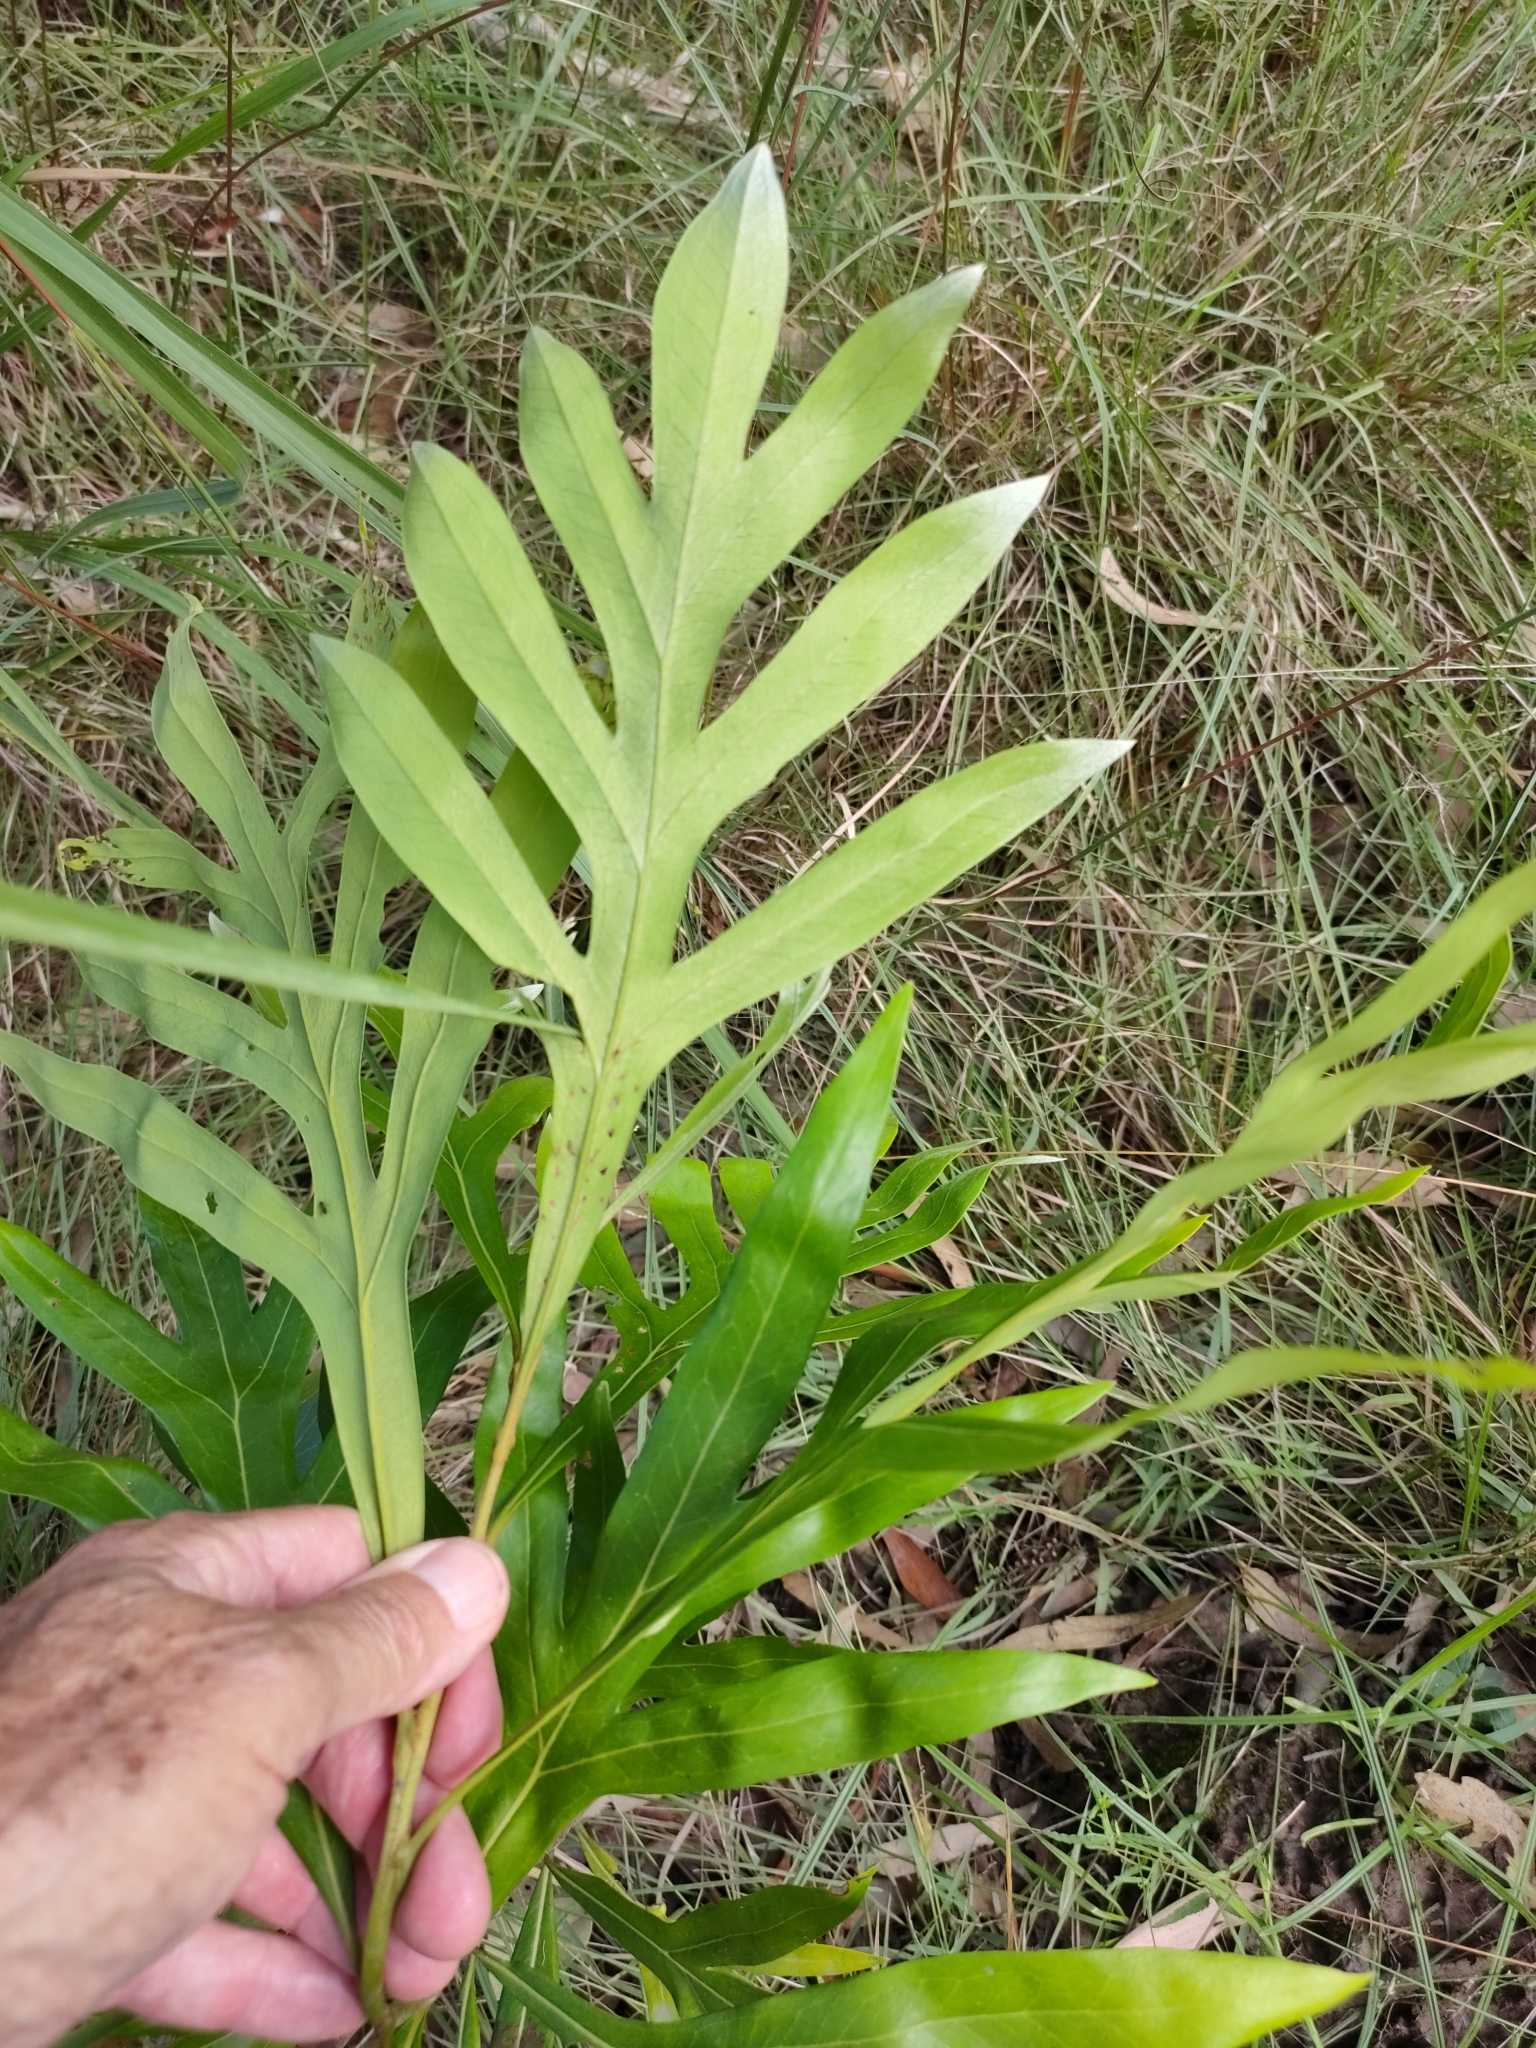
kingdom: Plantae
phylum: Tracheophyta
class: Magnoliopsida
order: Proteales
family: Proteaceae
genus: Grevillea
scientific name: Grevillea baileyana
